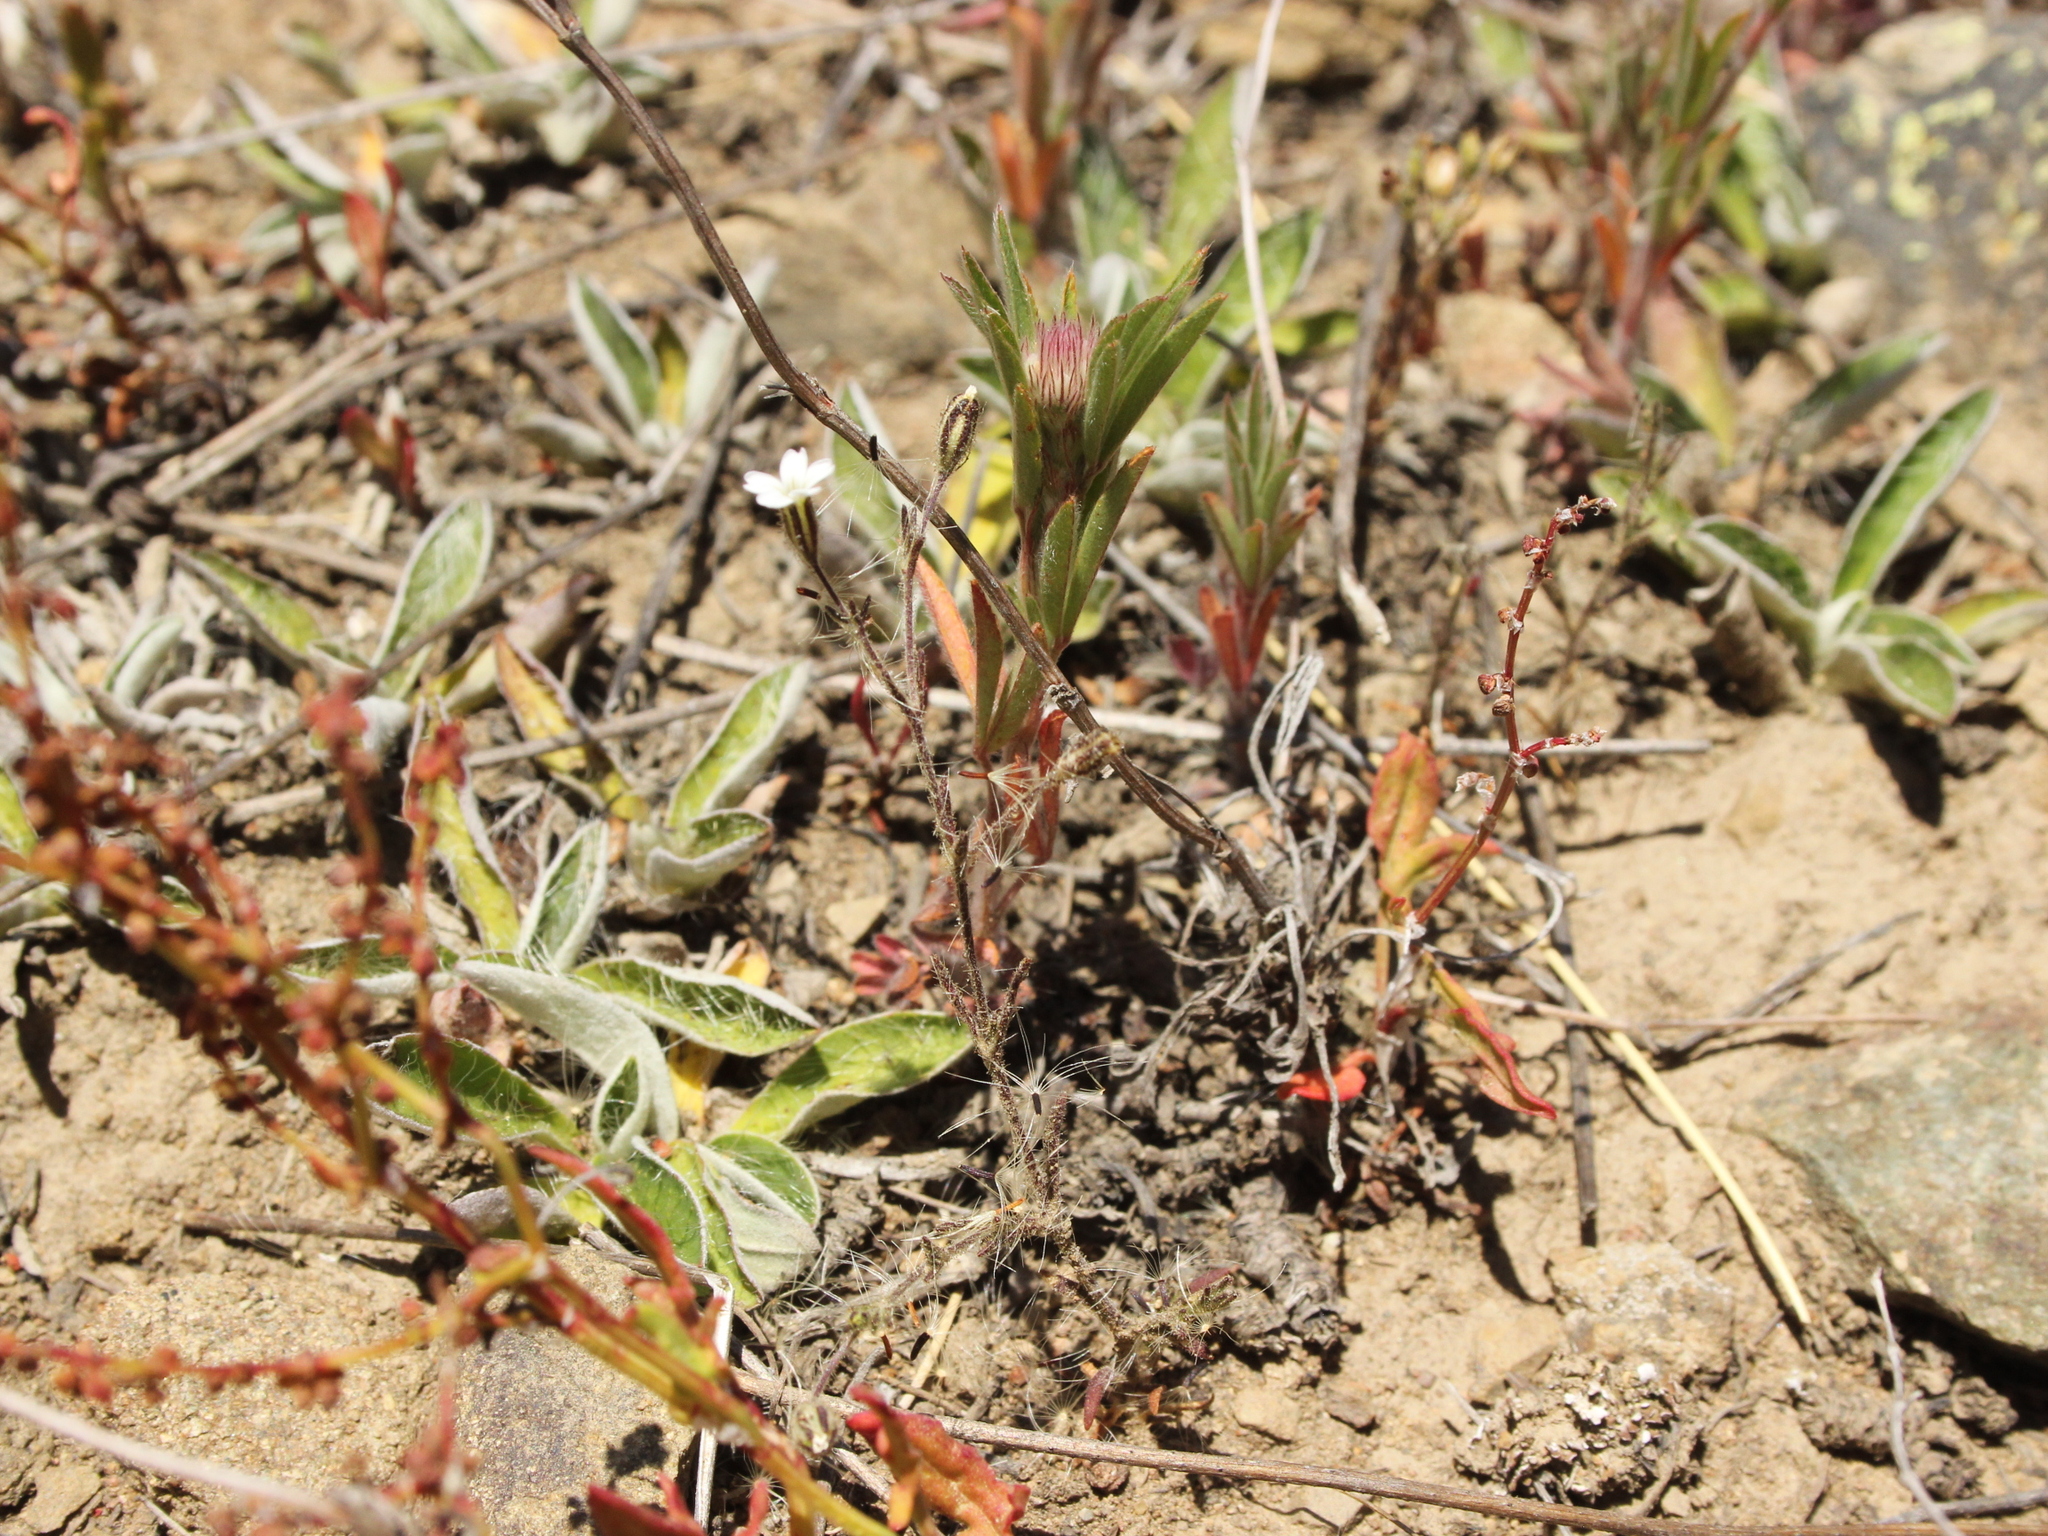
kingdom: Plantae
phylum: Tracheophyta
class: Magnoliopsida
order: Caryophyllales
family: Caryophyllaceae
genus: Gypsophila
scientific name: Gypsophila australis
